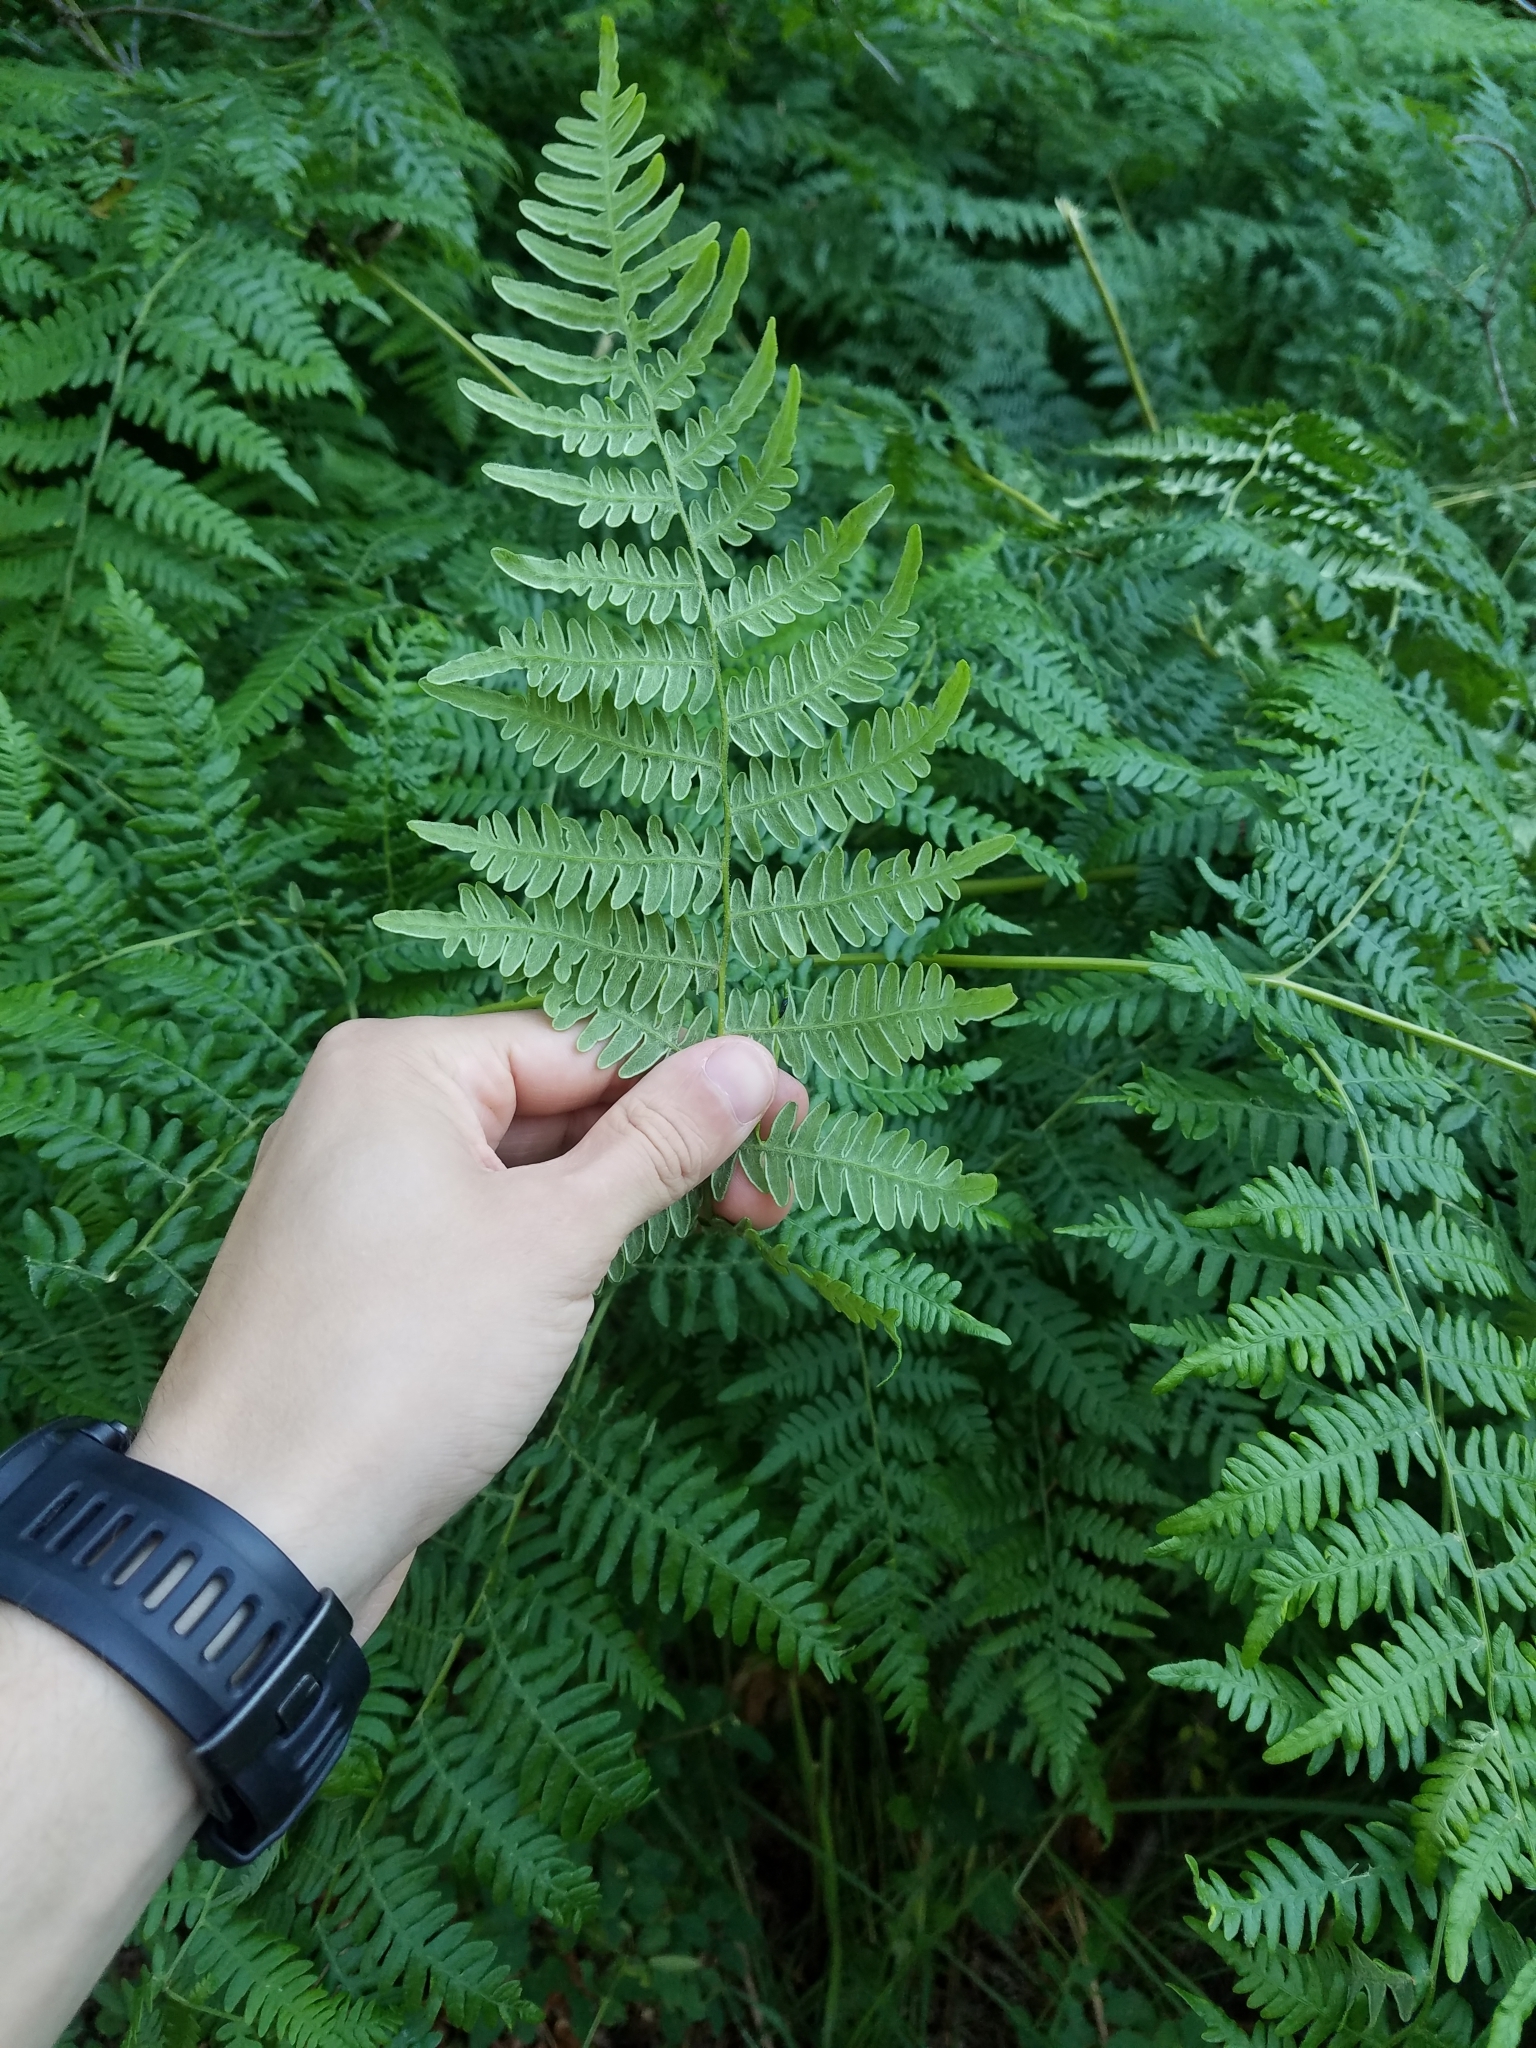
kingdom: Plantae
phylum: Tracheophyta
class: Polypodiopsida
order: Polypodiales
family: Dennstaedtiaceae
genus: Pteridium
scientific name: Pteridium aquilinum
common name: Bracken
